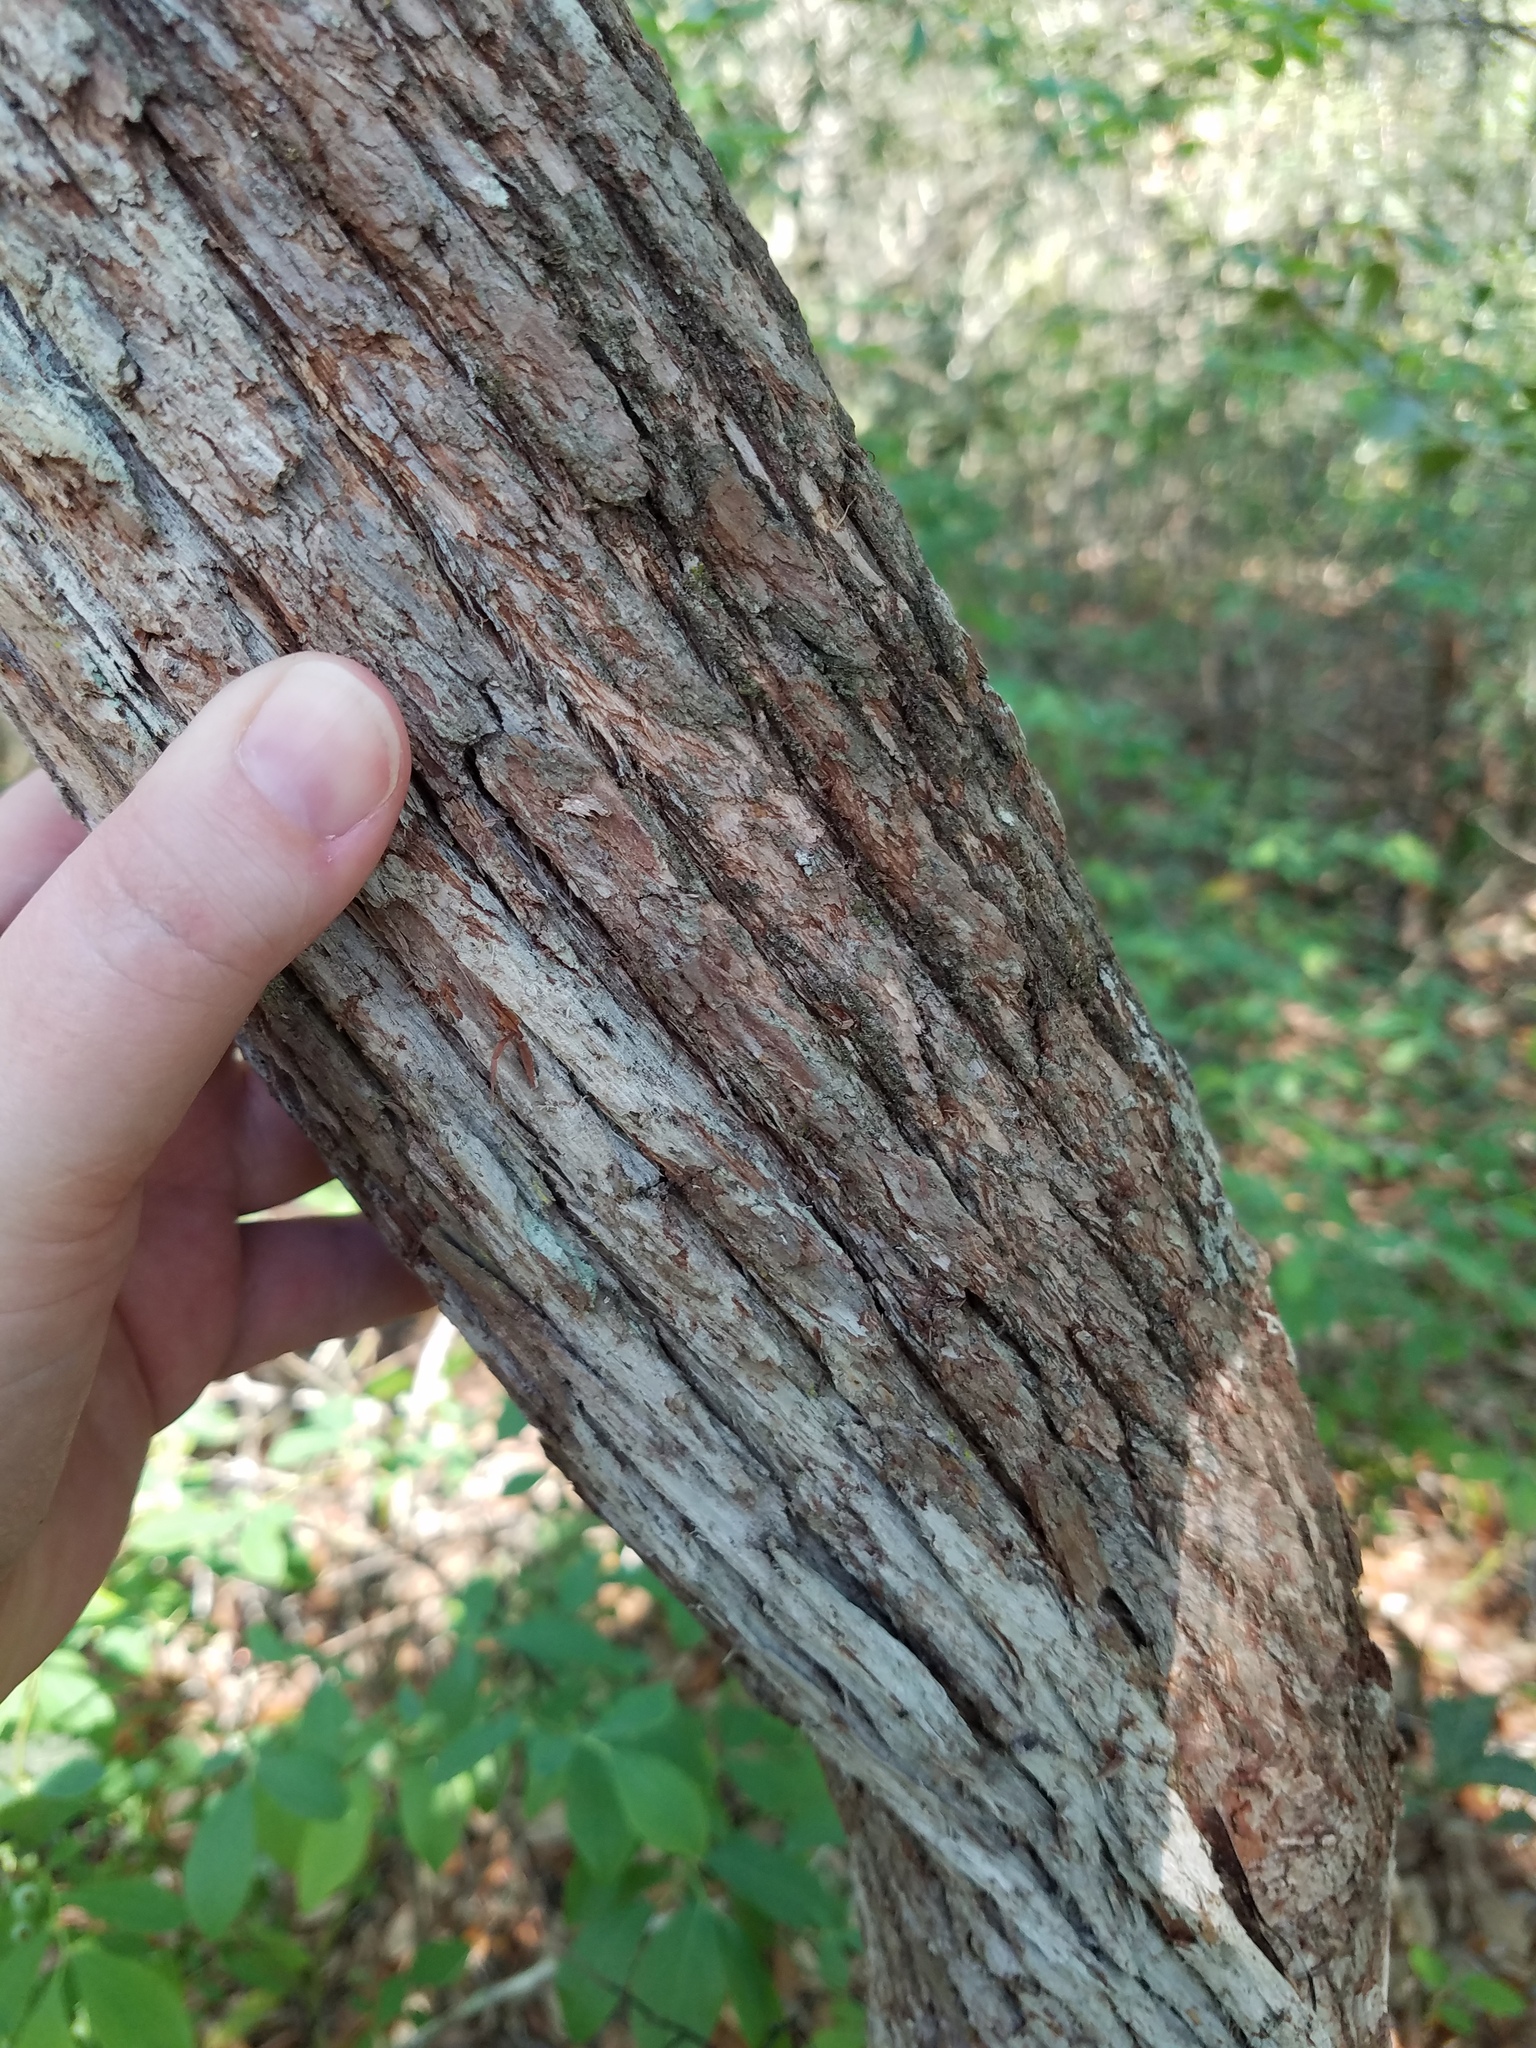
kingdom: Plantae
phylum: Tracheophyta
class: Magnoliopsida
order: Ericales
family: Ericaceae
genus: Lyonia
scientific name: Lyonia ferruginea
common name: Rusty lyonia
